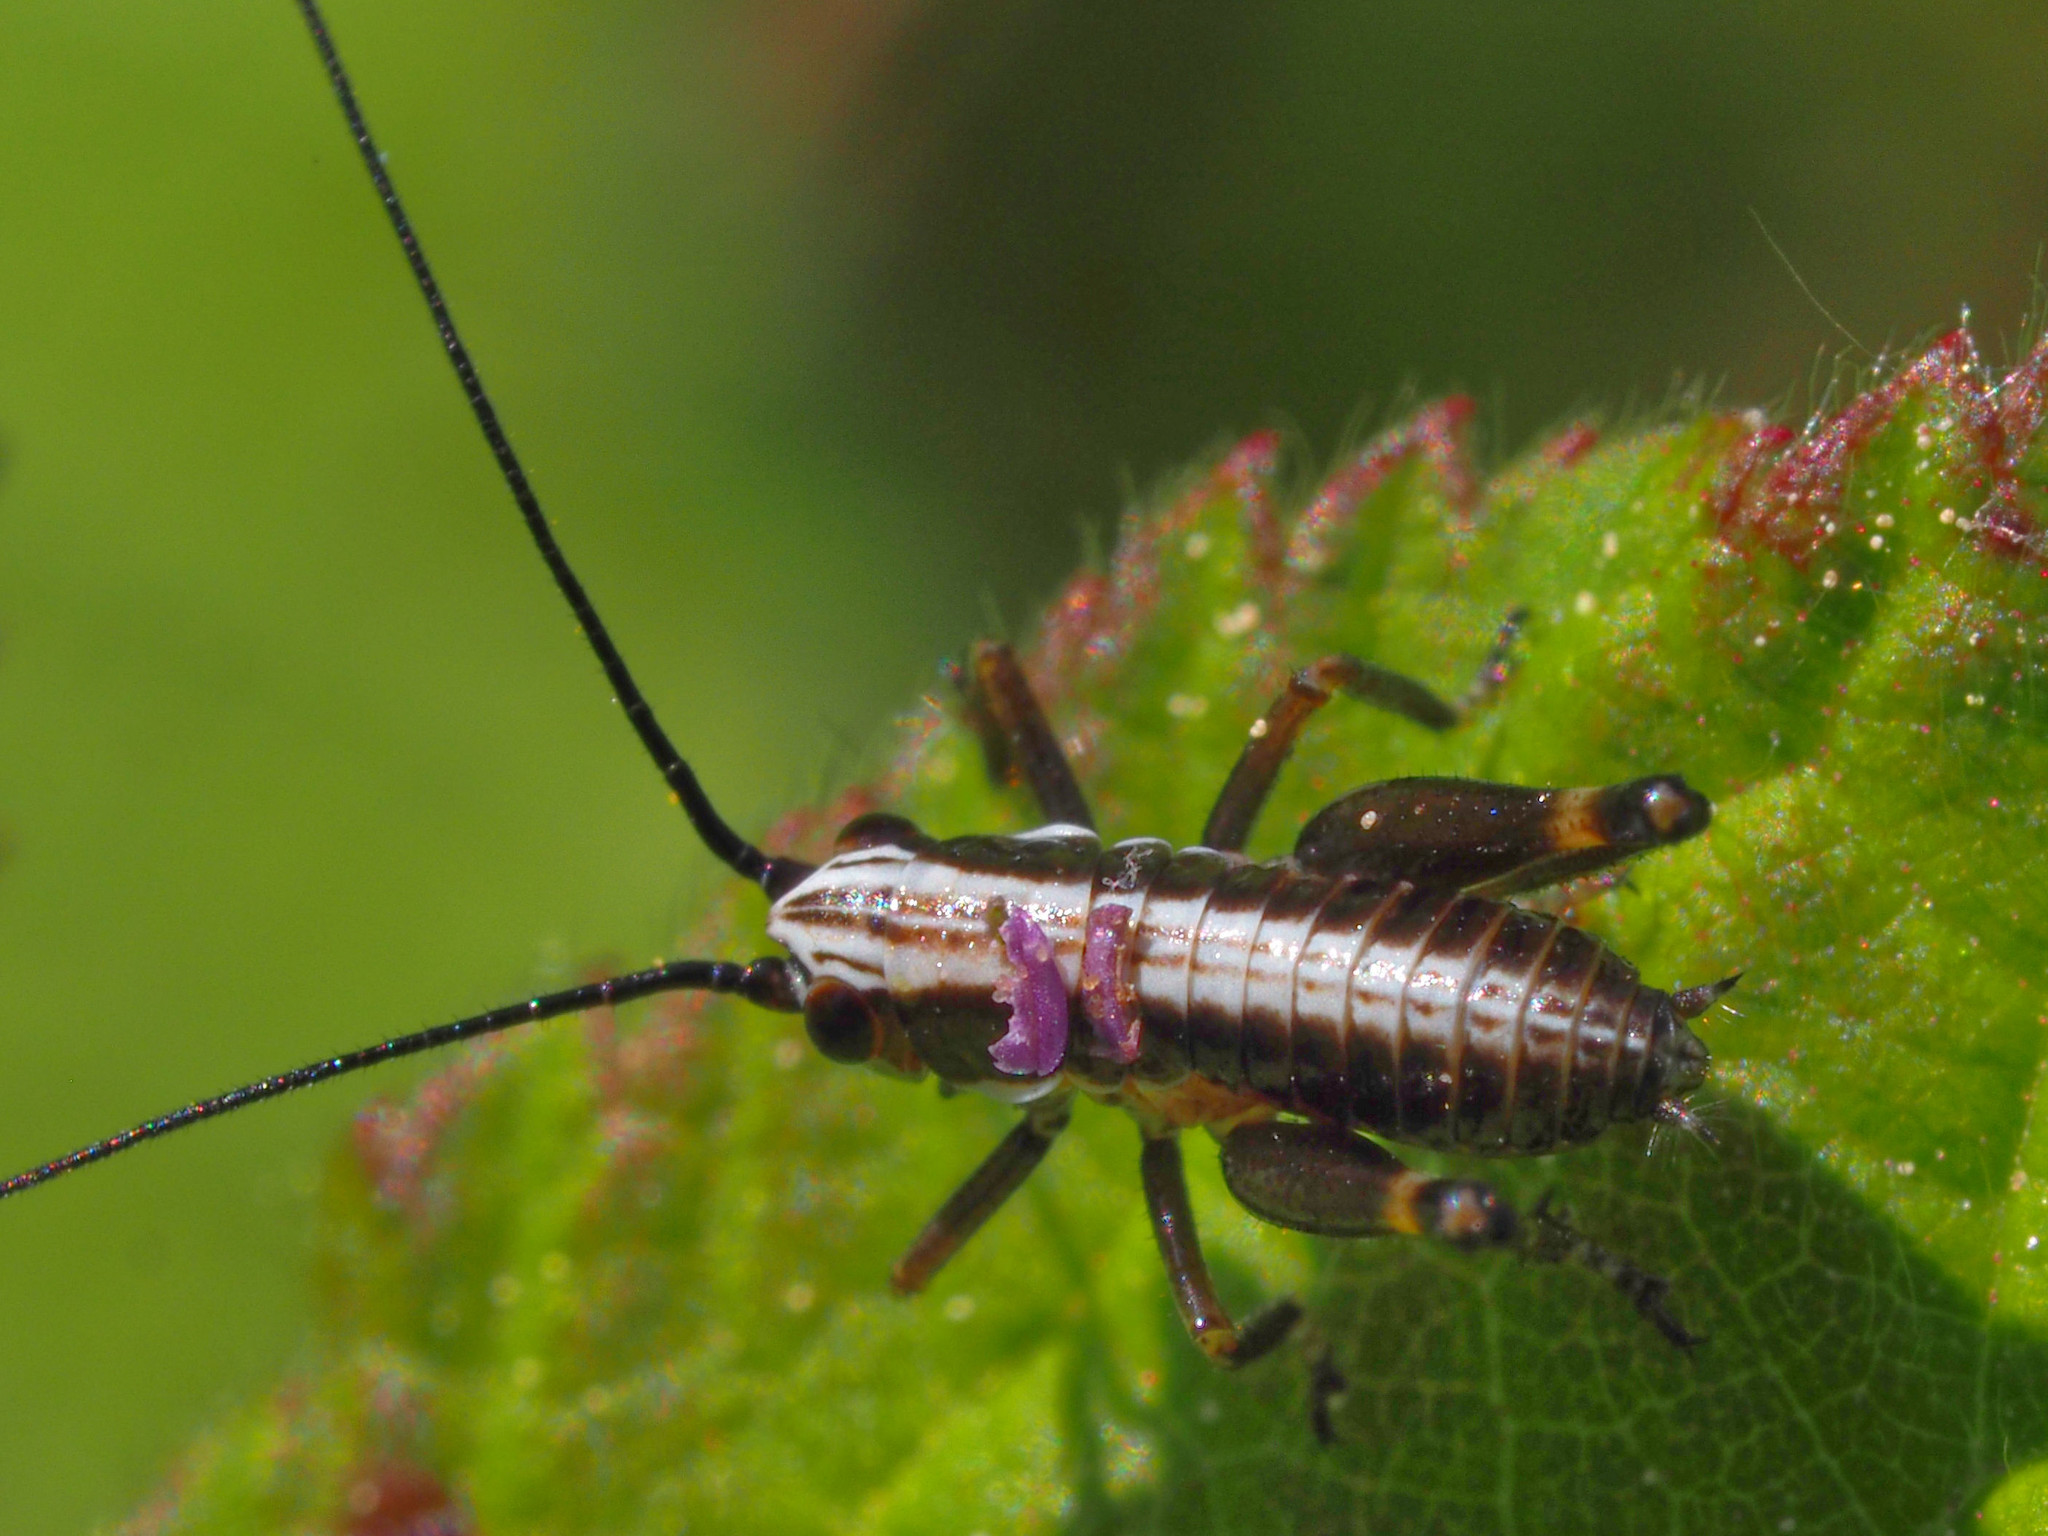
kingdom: Animalia
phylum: Arthropoda
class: Insecta
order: Orthoptera
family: Tettigoniidae
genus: Pholidoptera
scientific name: Pholidoptera aptera
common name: Alpine dark bush-cricket
